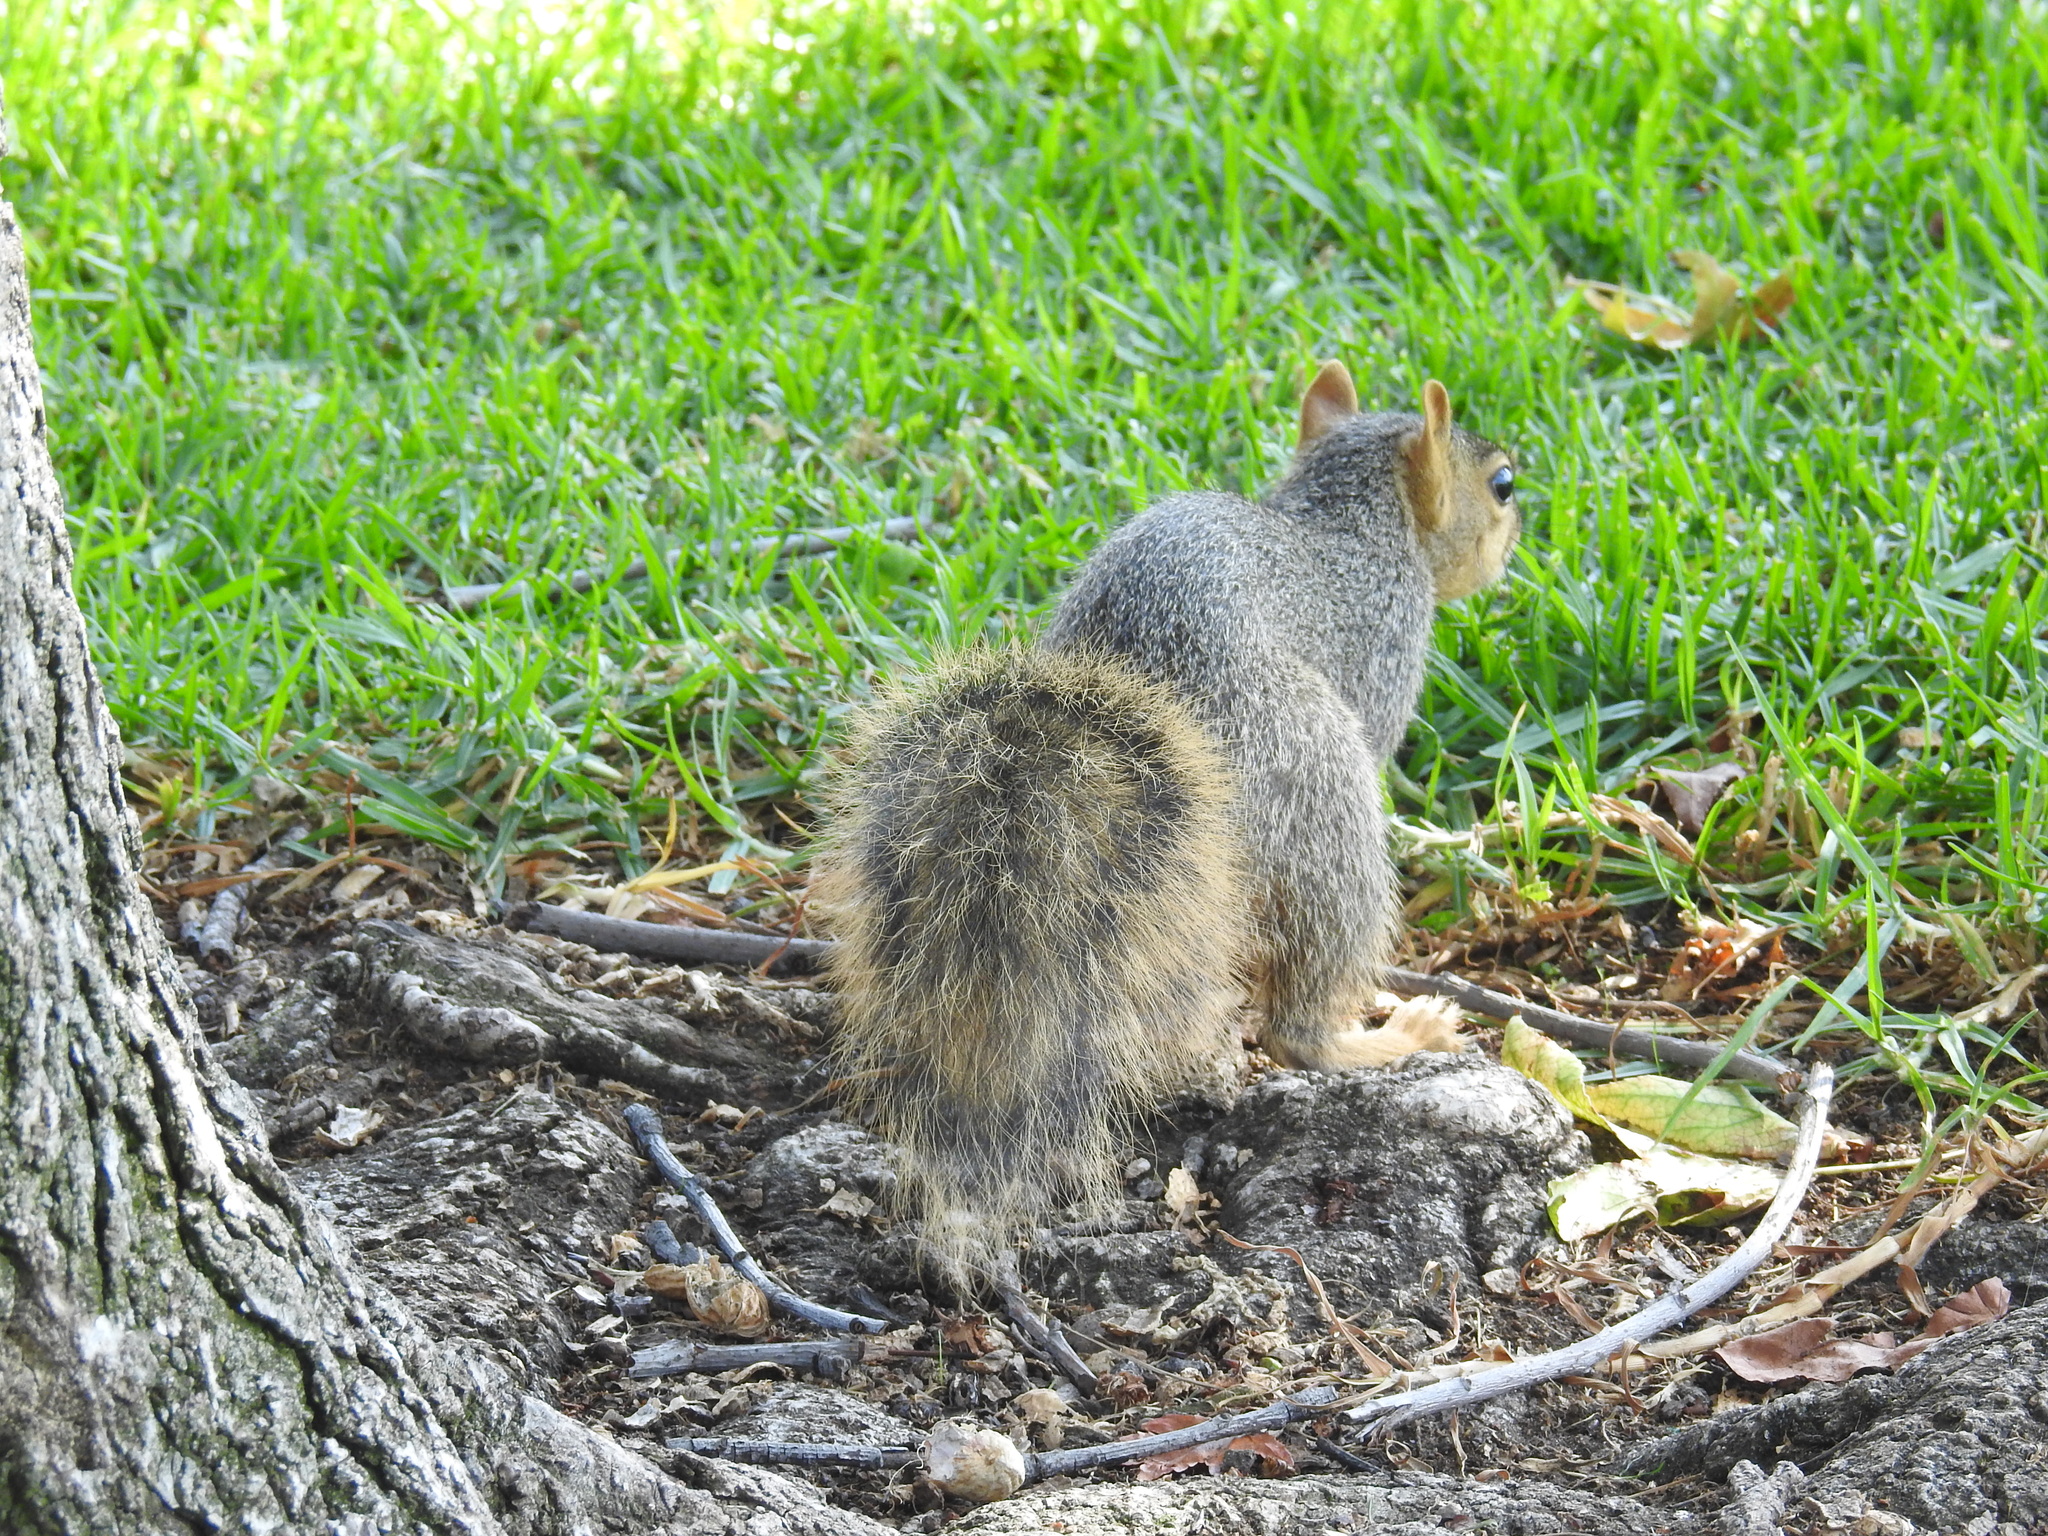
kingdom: Animalia
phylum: Chordata
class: Mammalia
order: Rodentia
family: Sciuridae
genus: Sciurus
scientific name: Sciurus niger
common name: Fox squirrel
